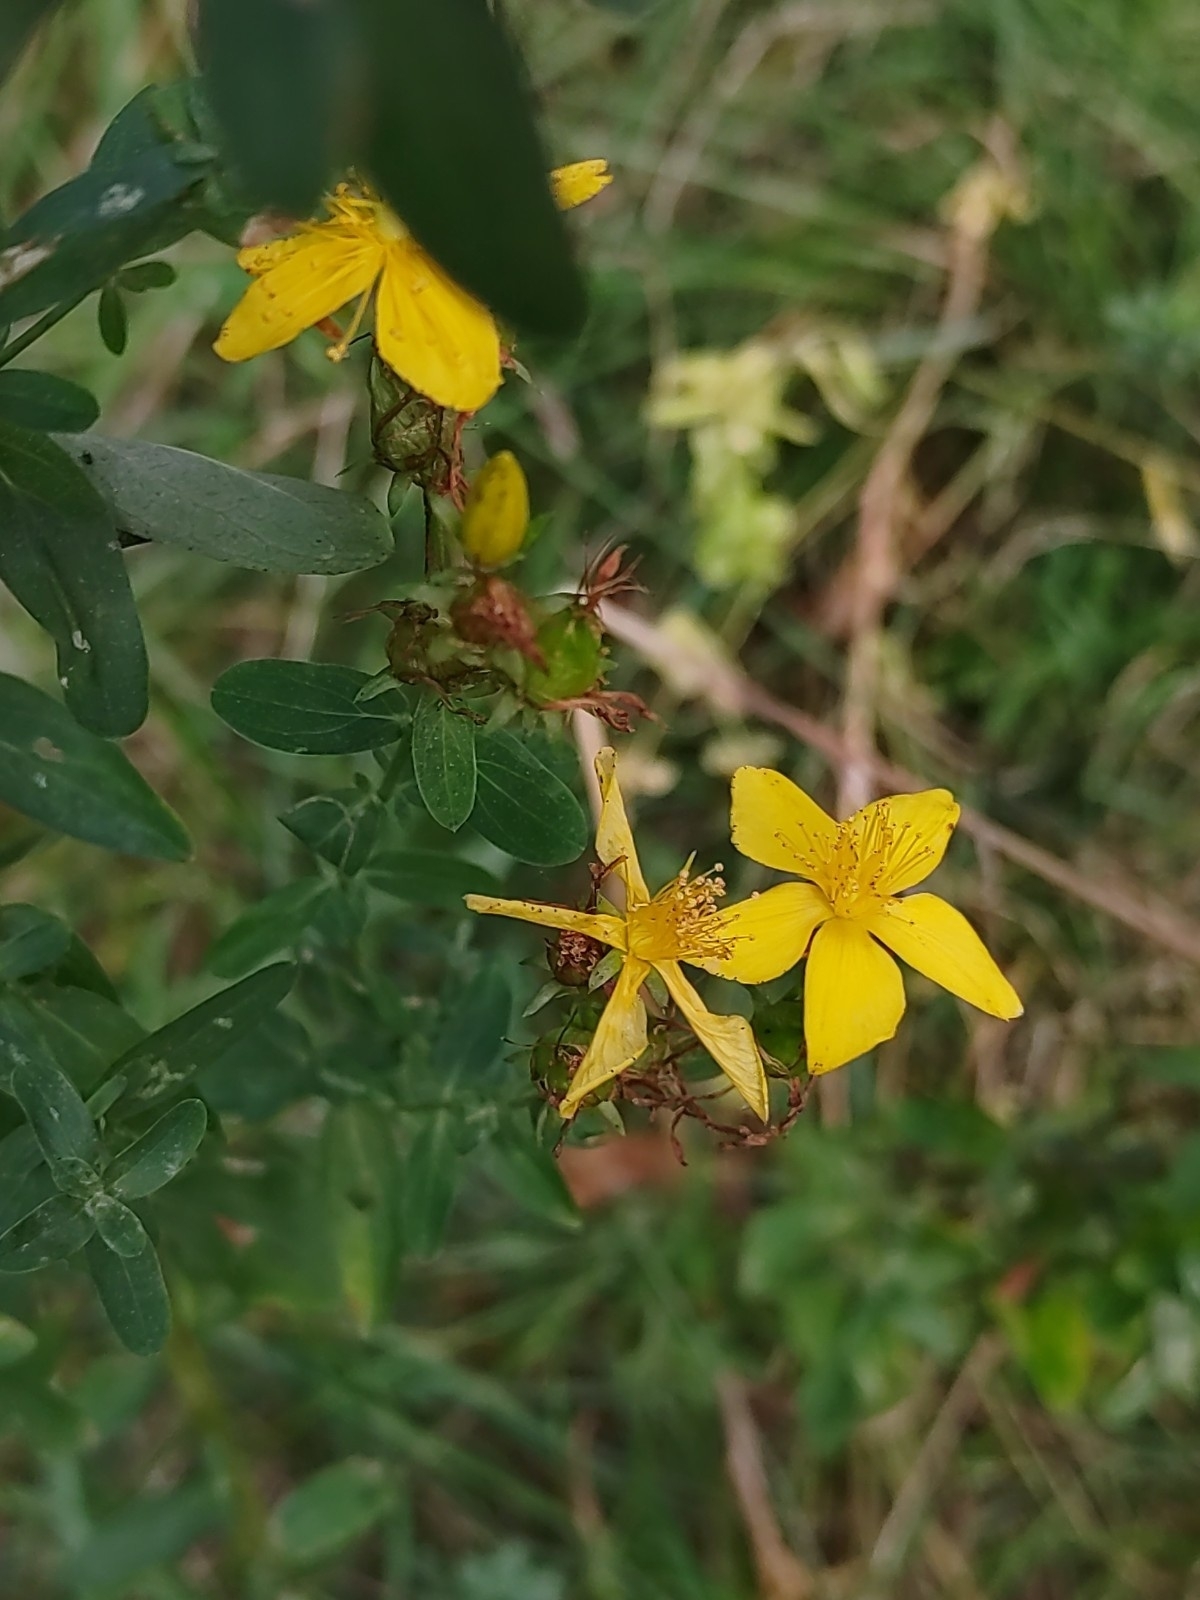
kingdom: Plantae
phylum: Tracheophyta
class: Magnoliopsida
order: Malpighiales
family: Hypericaceae
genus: Hypericum
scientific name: Hypericum perforatum
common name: Common st. johnswort
